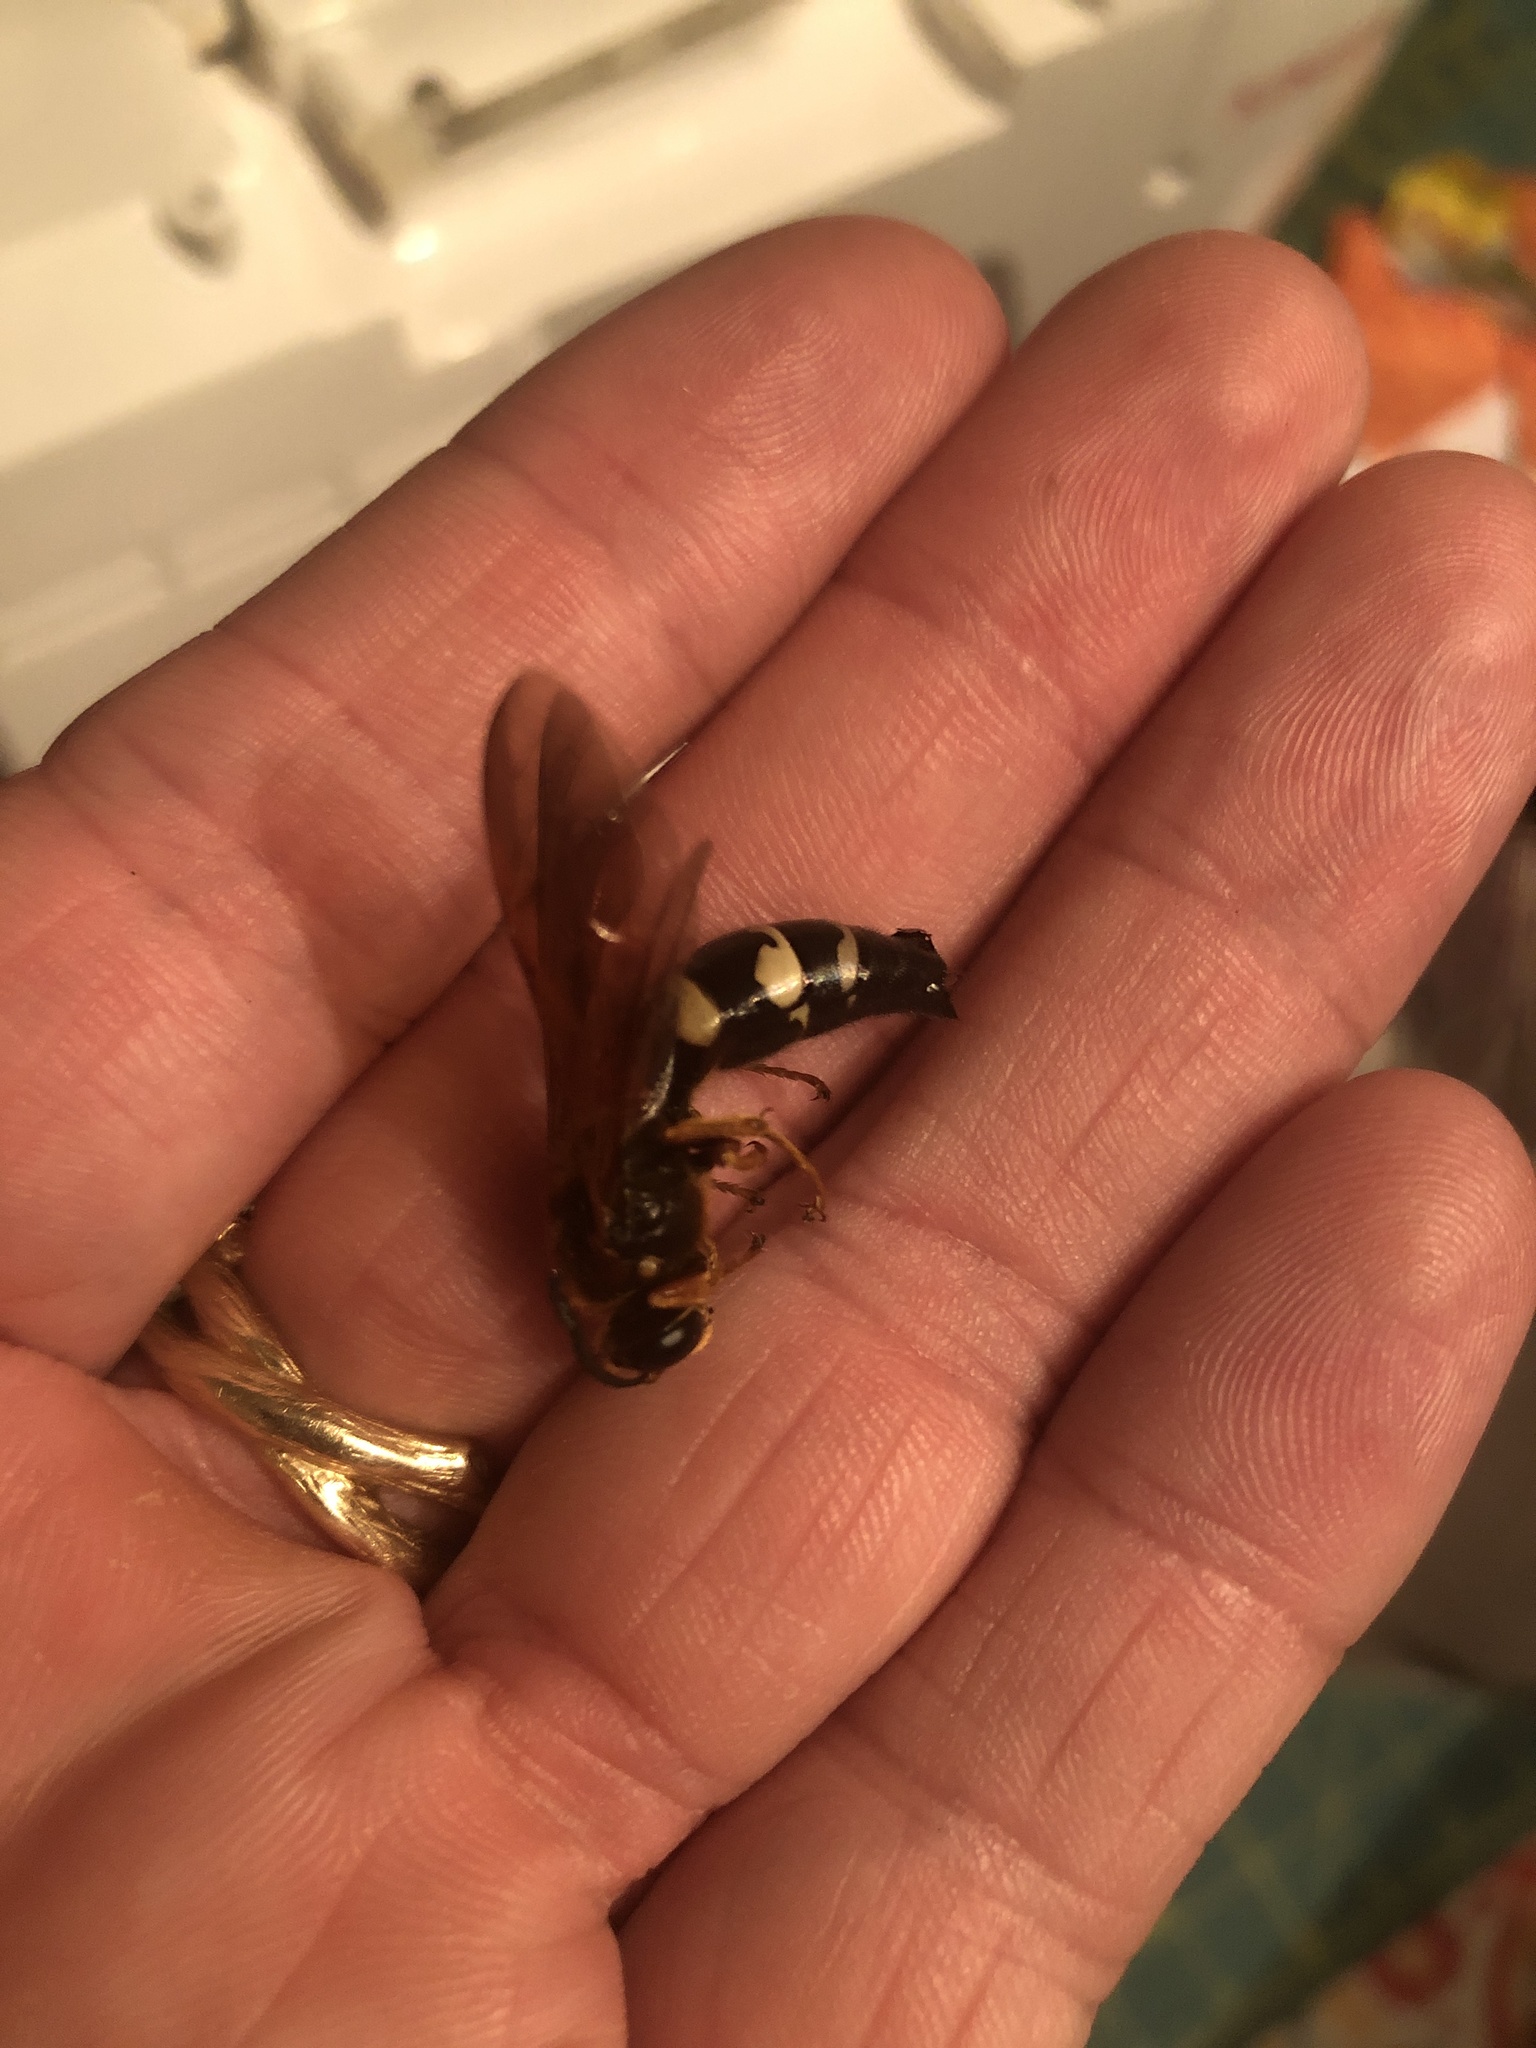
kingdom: Animalia
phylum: Arthropoda
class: Insecta
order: Hymenoptera
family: Crabronidae
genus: Sphecius
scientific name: Sphecius speciosus
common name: Cicada killer
